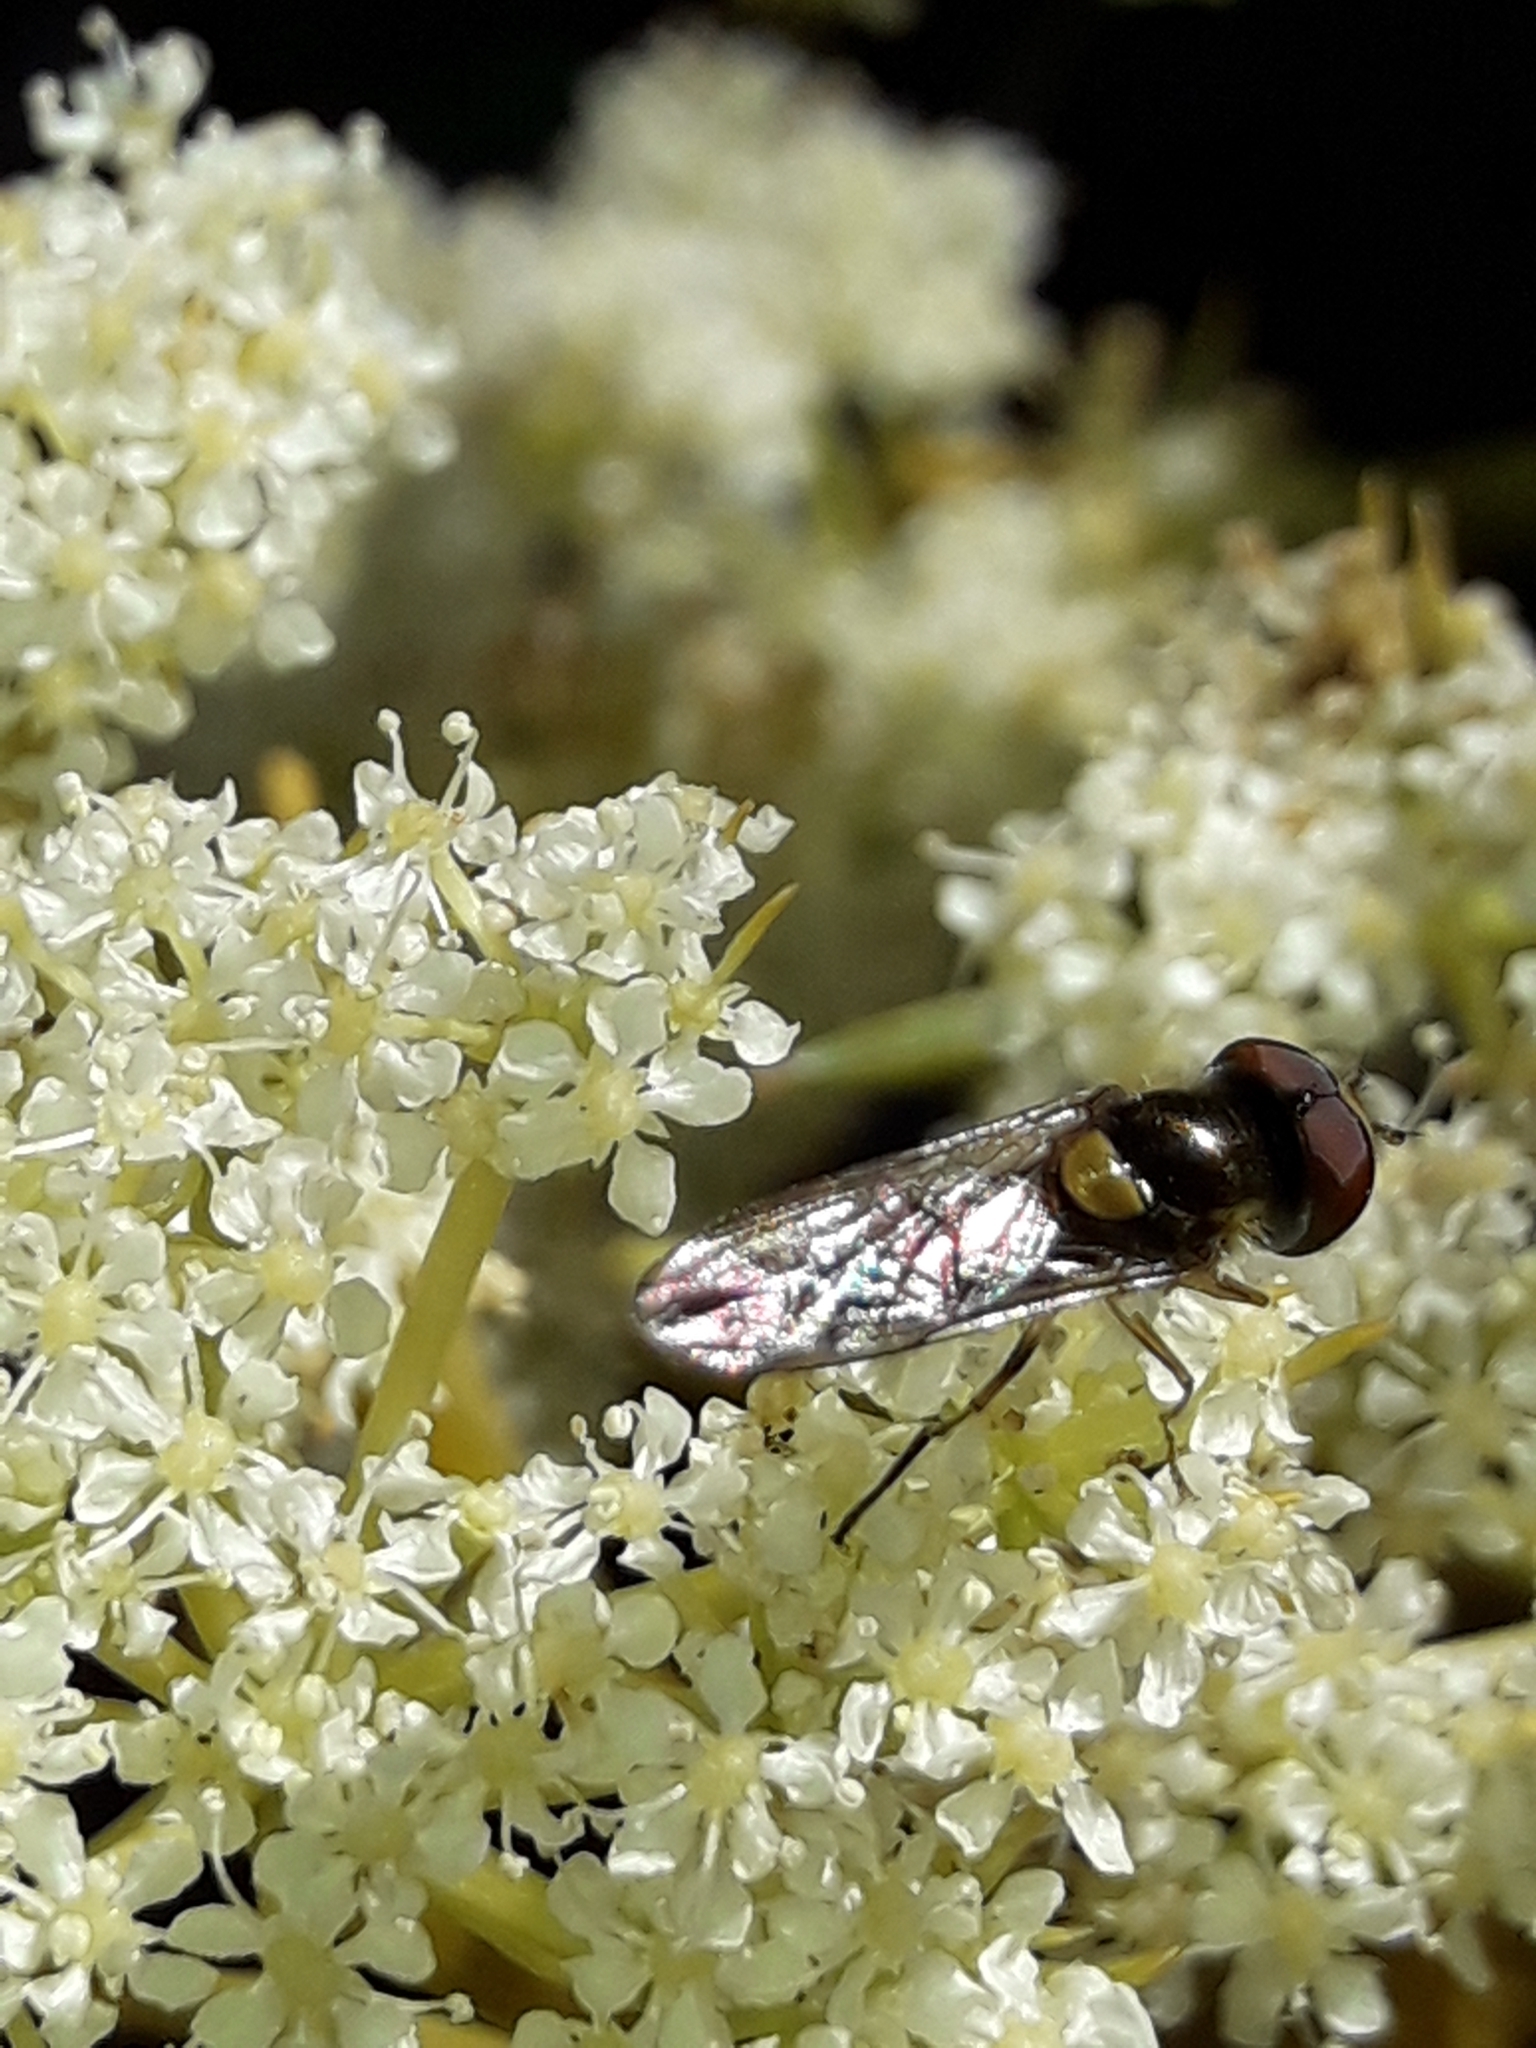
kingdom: Animalia
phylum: Arthropoda
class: Insecta
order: Diptera
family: Syrphidae
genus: Melangyna
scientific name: Melangyna novaezelandiae
